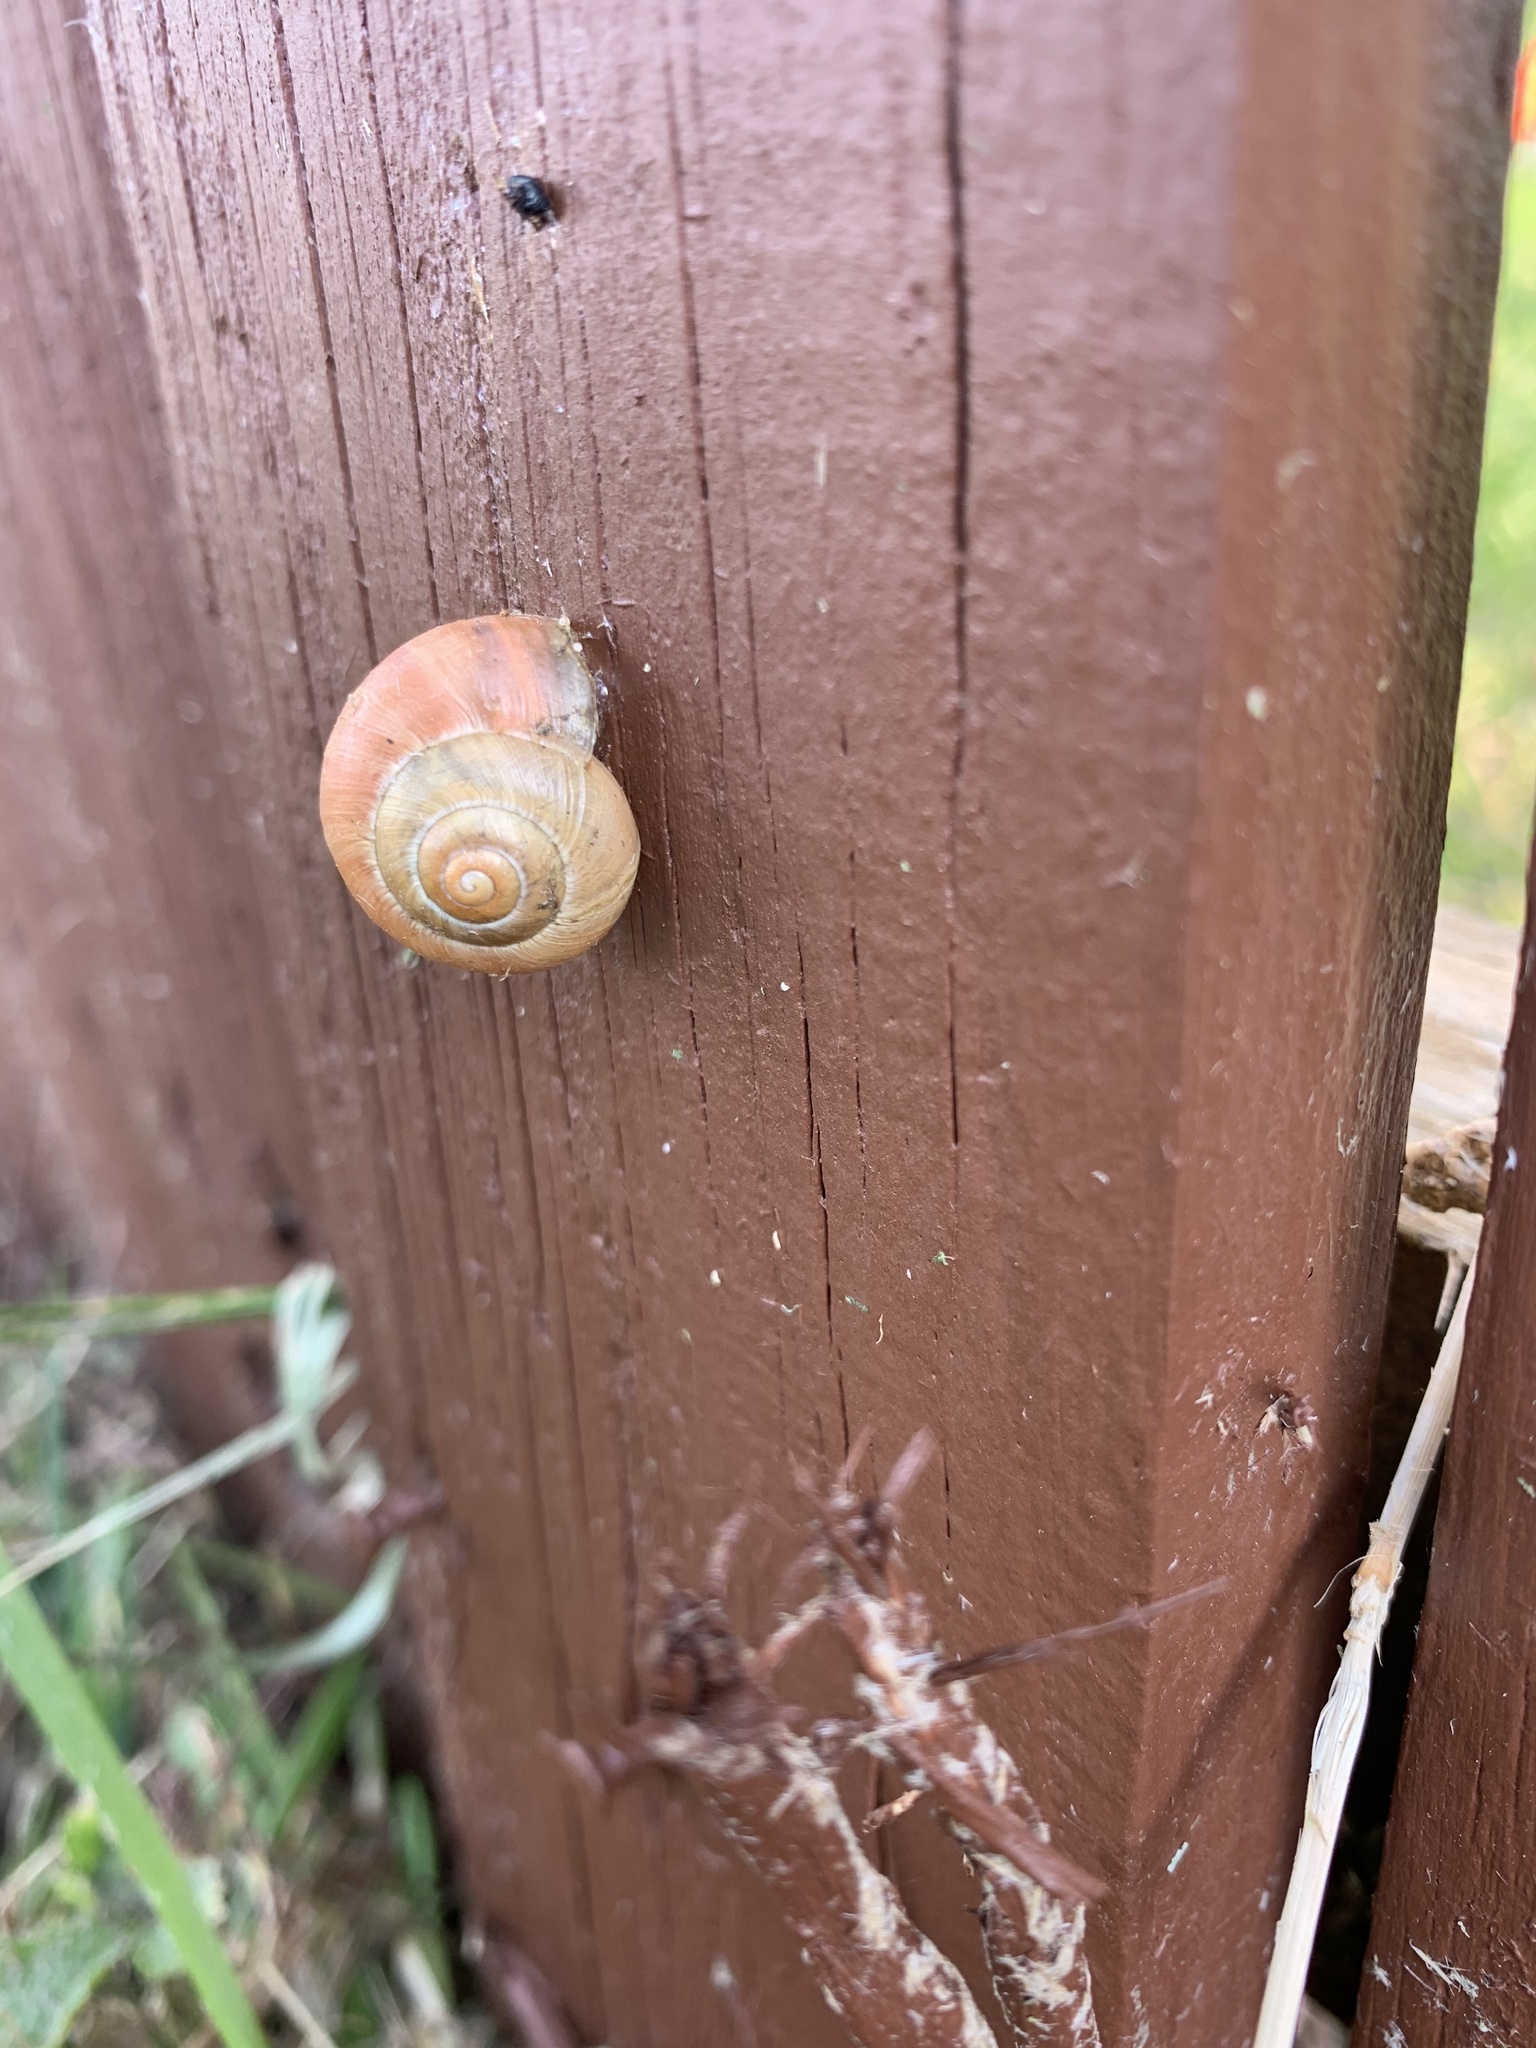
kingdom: Animalia
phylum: Mollusca
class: Gastropoda
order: Stylommatophora
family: Helicidae
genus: Cepaea
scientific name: Cepaea
